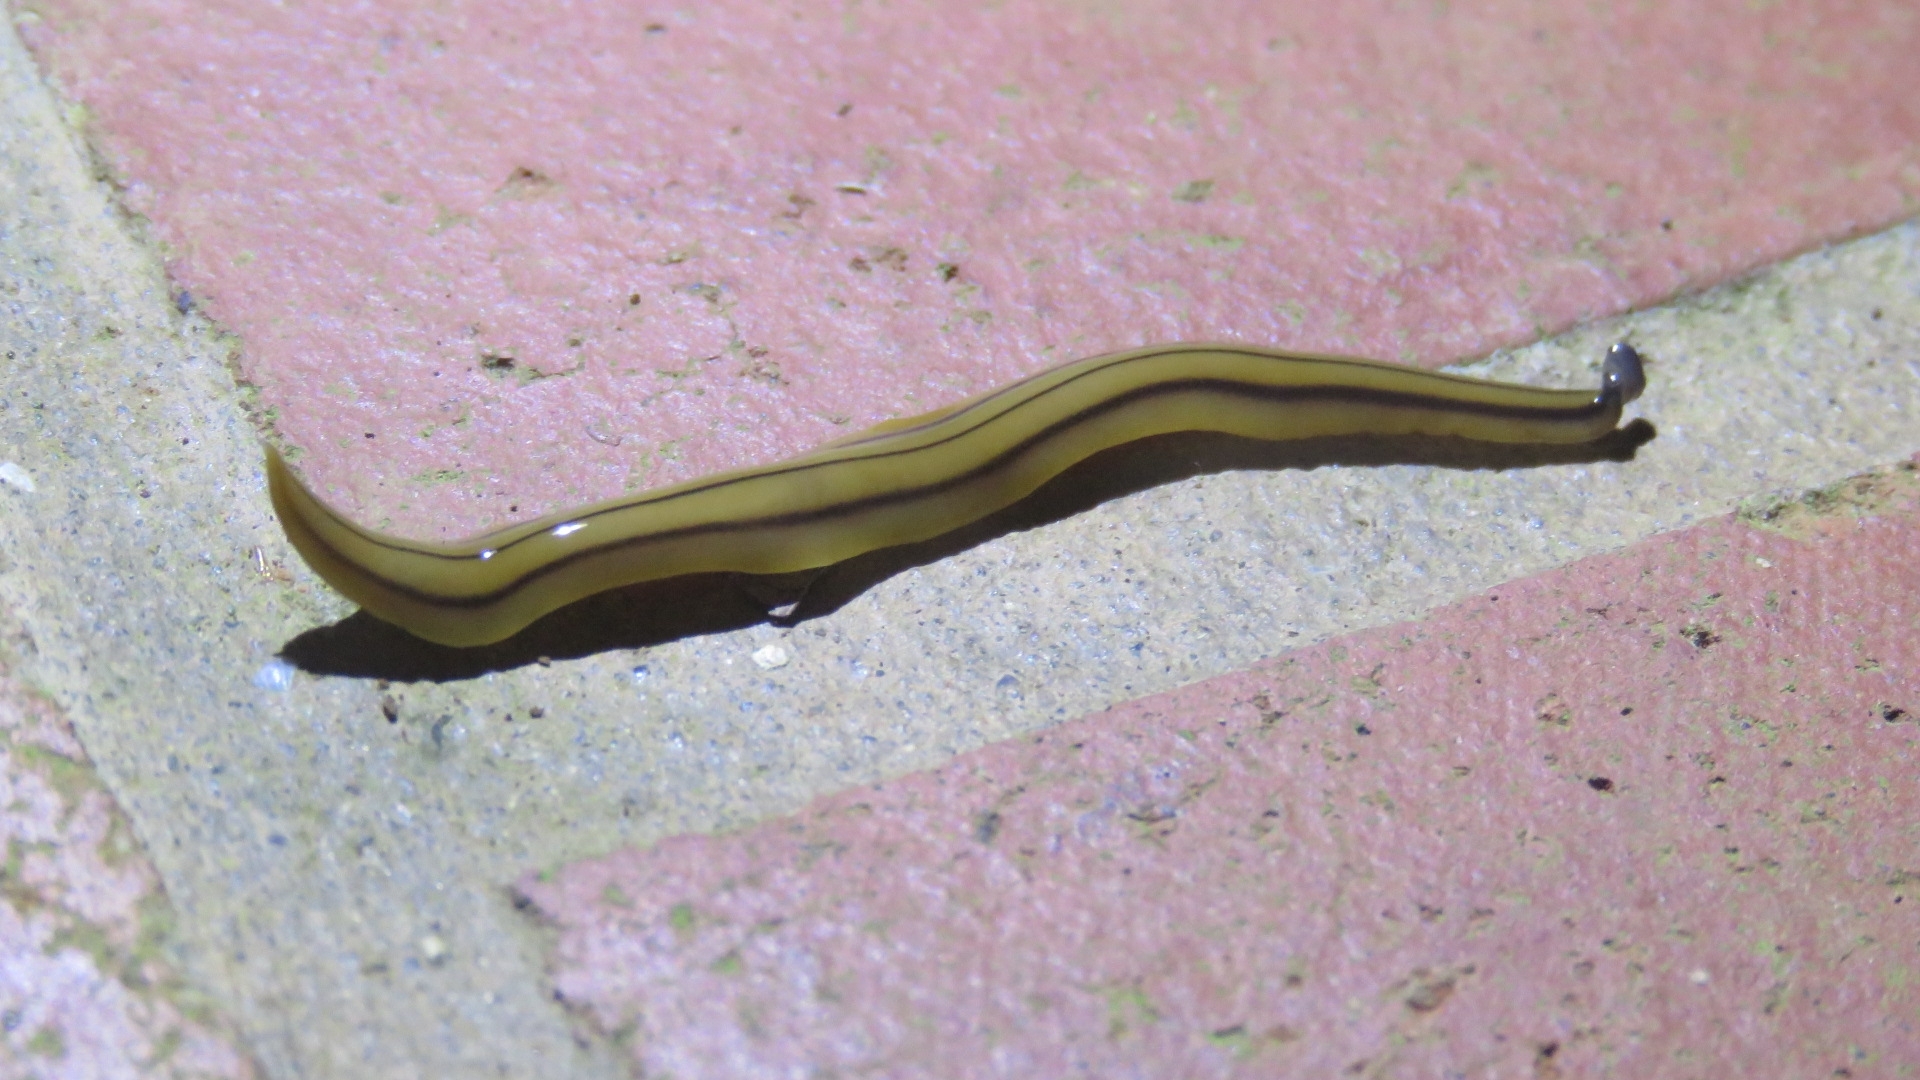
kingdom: Animalia
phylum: Platyhelminthes
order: Tricladida
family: Geoplanidae
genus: Pseudogeoplana
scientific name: Pseudogeoplana bilineata
